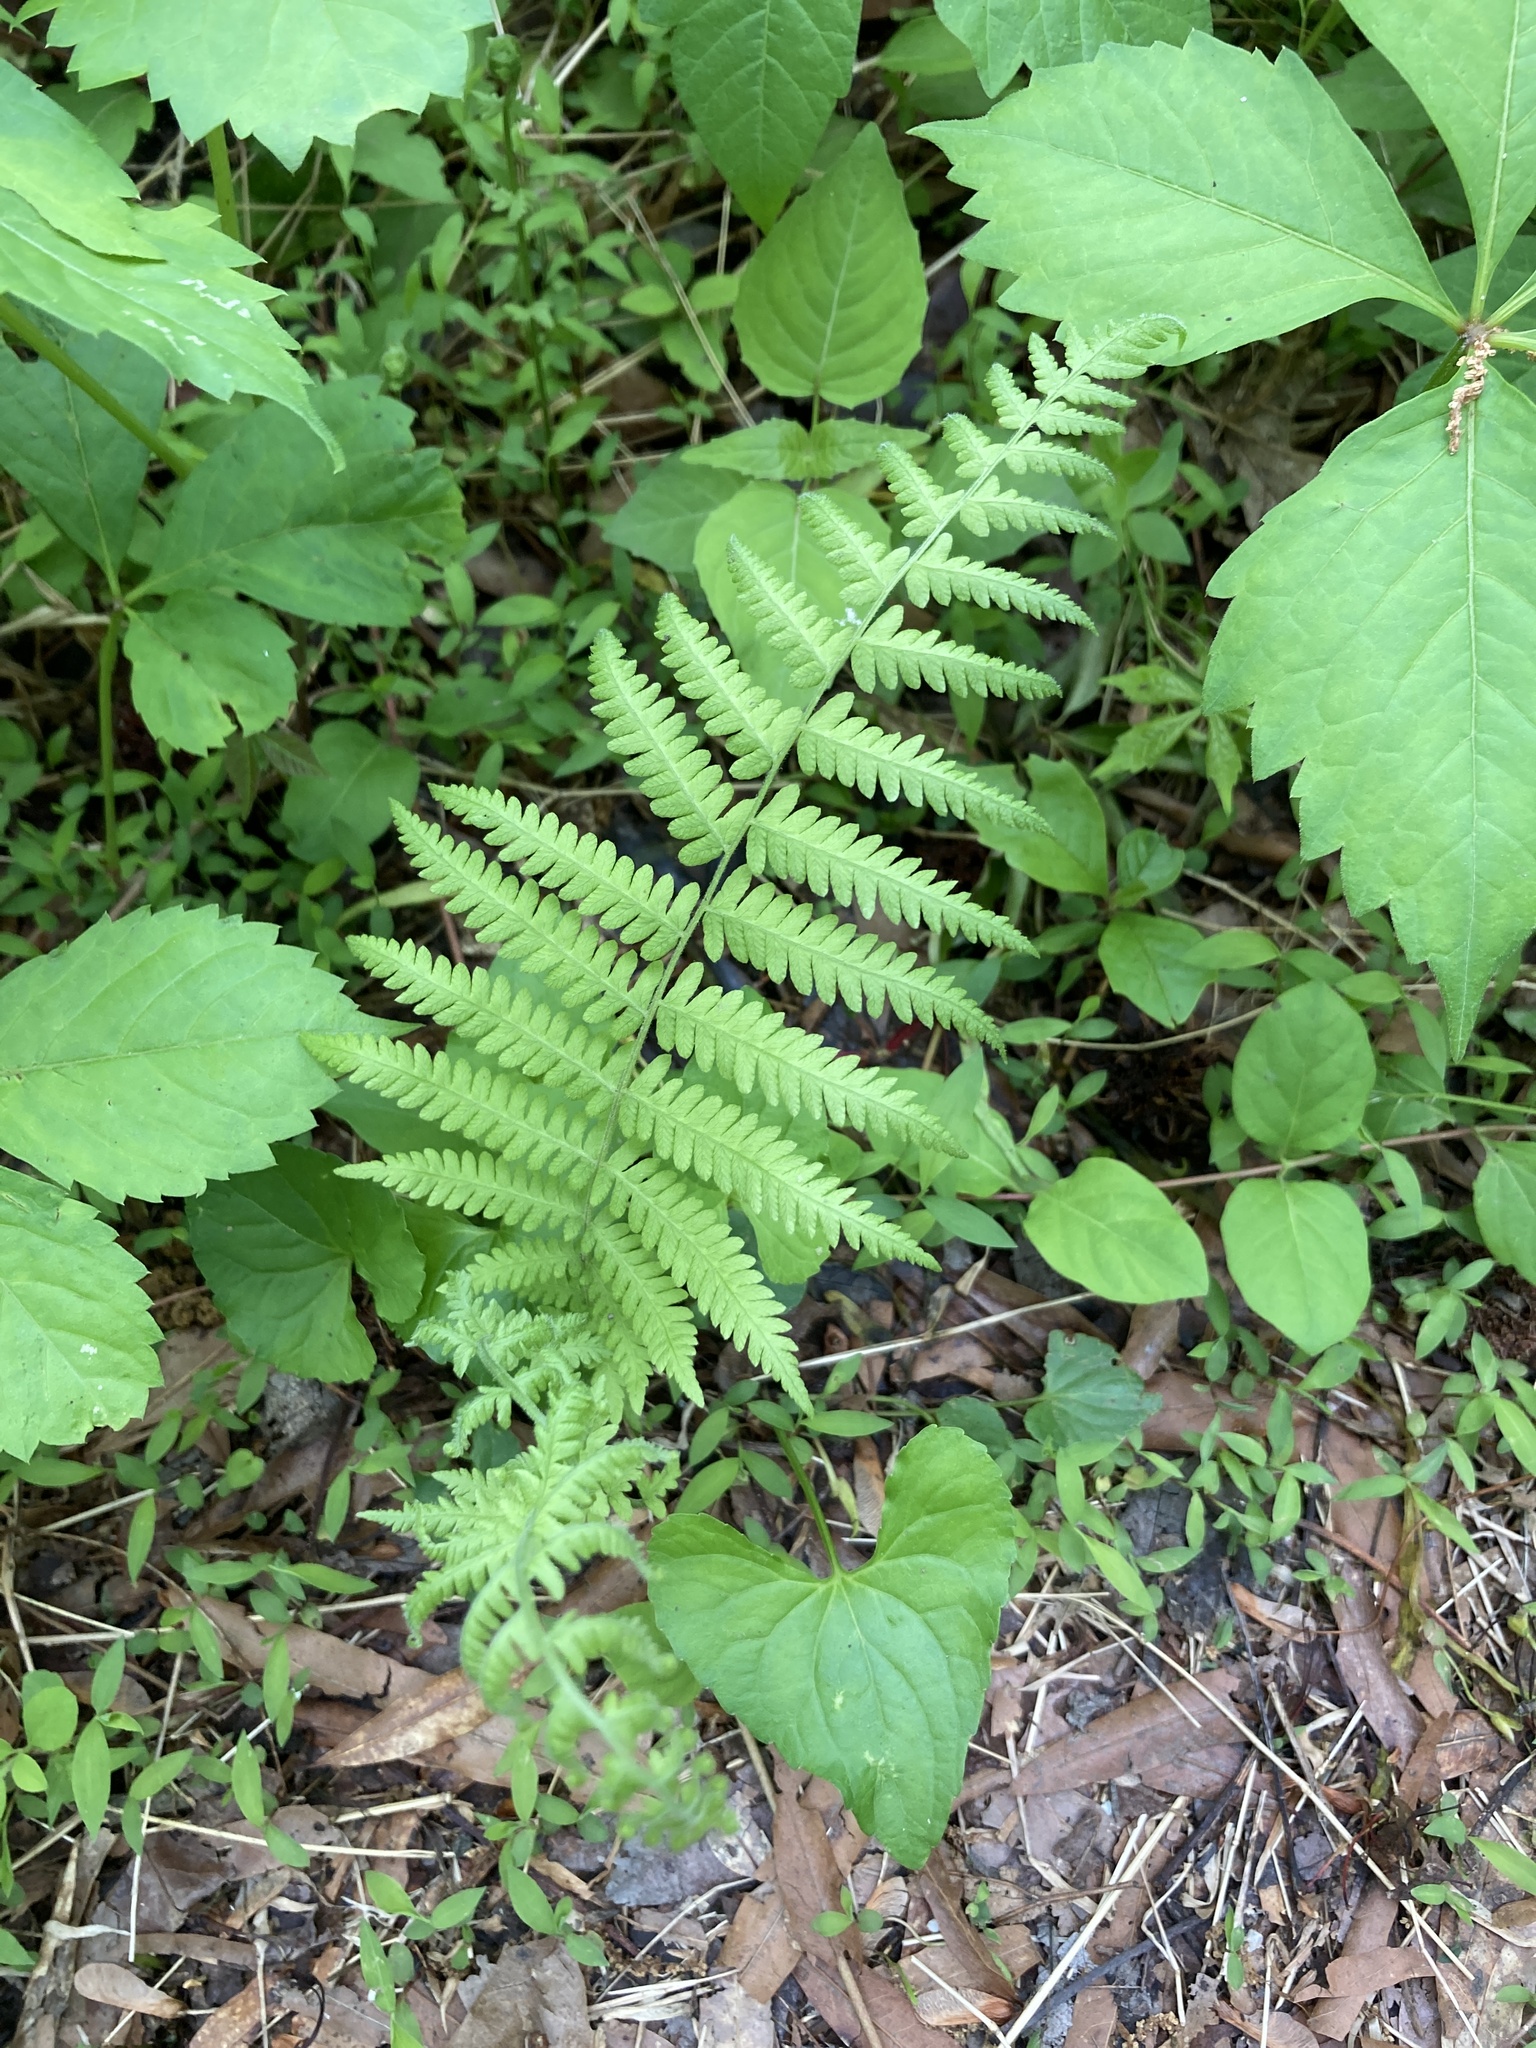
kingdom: Plantae
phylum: Tracheophyta
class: Polypodiopsida
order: Polypodiales
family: Thelypteridaceae
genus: Amauropelta
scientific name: Amauropelta noveboracensis
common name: New york fern
